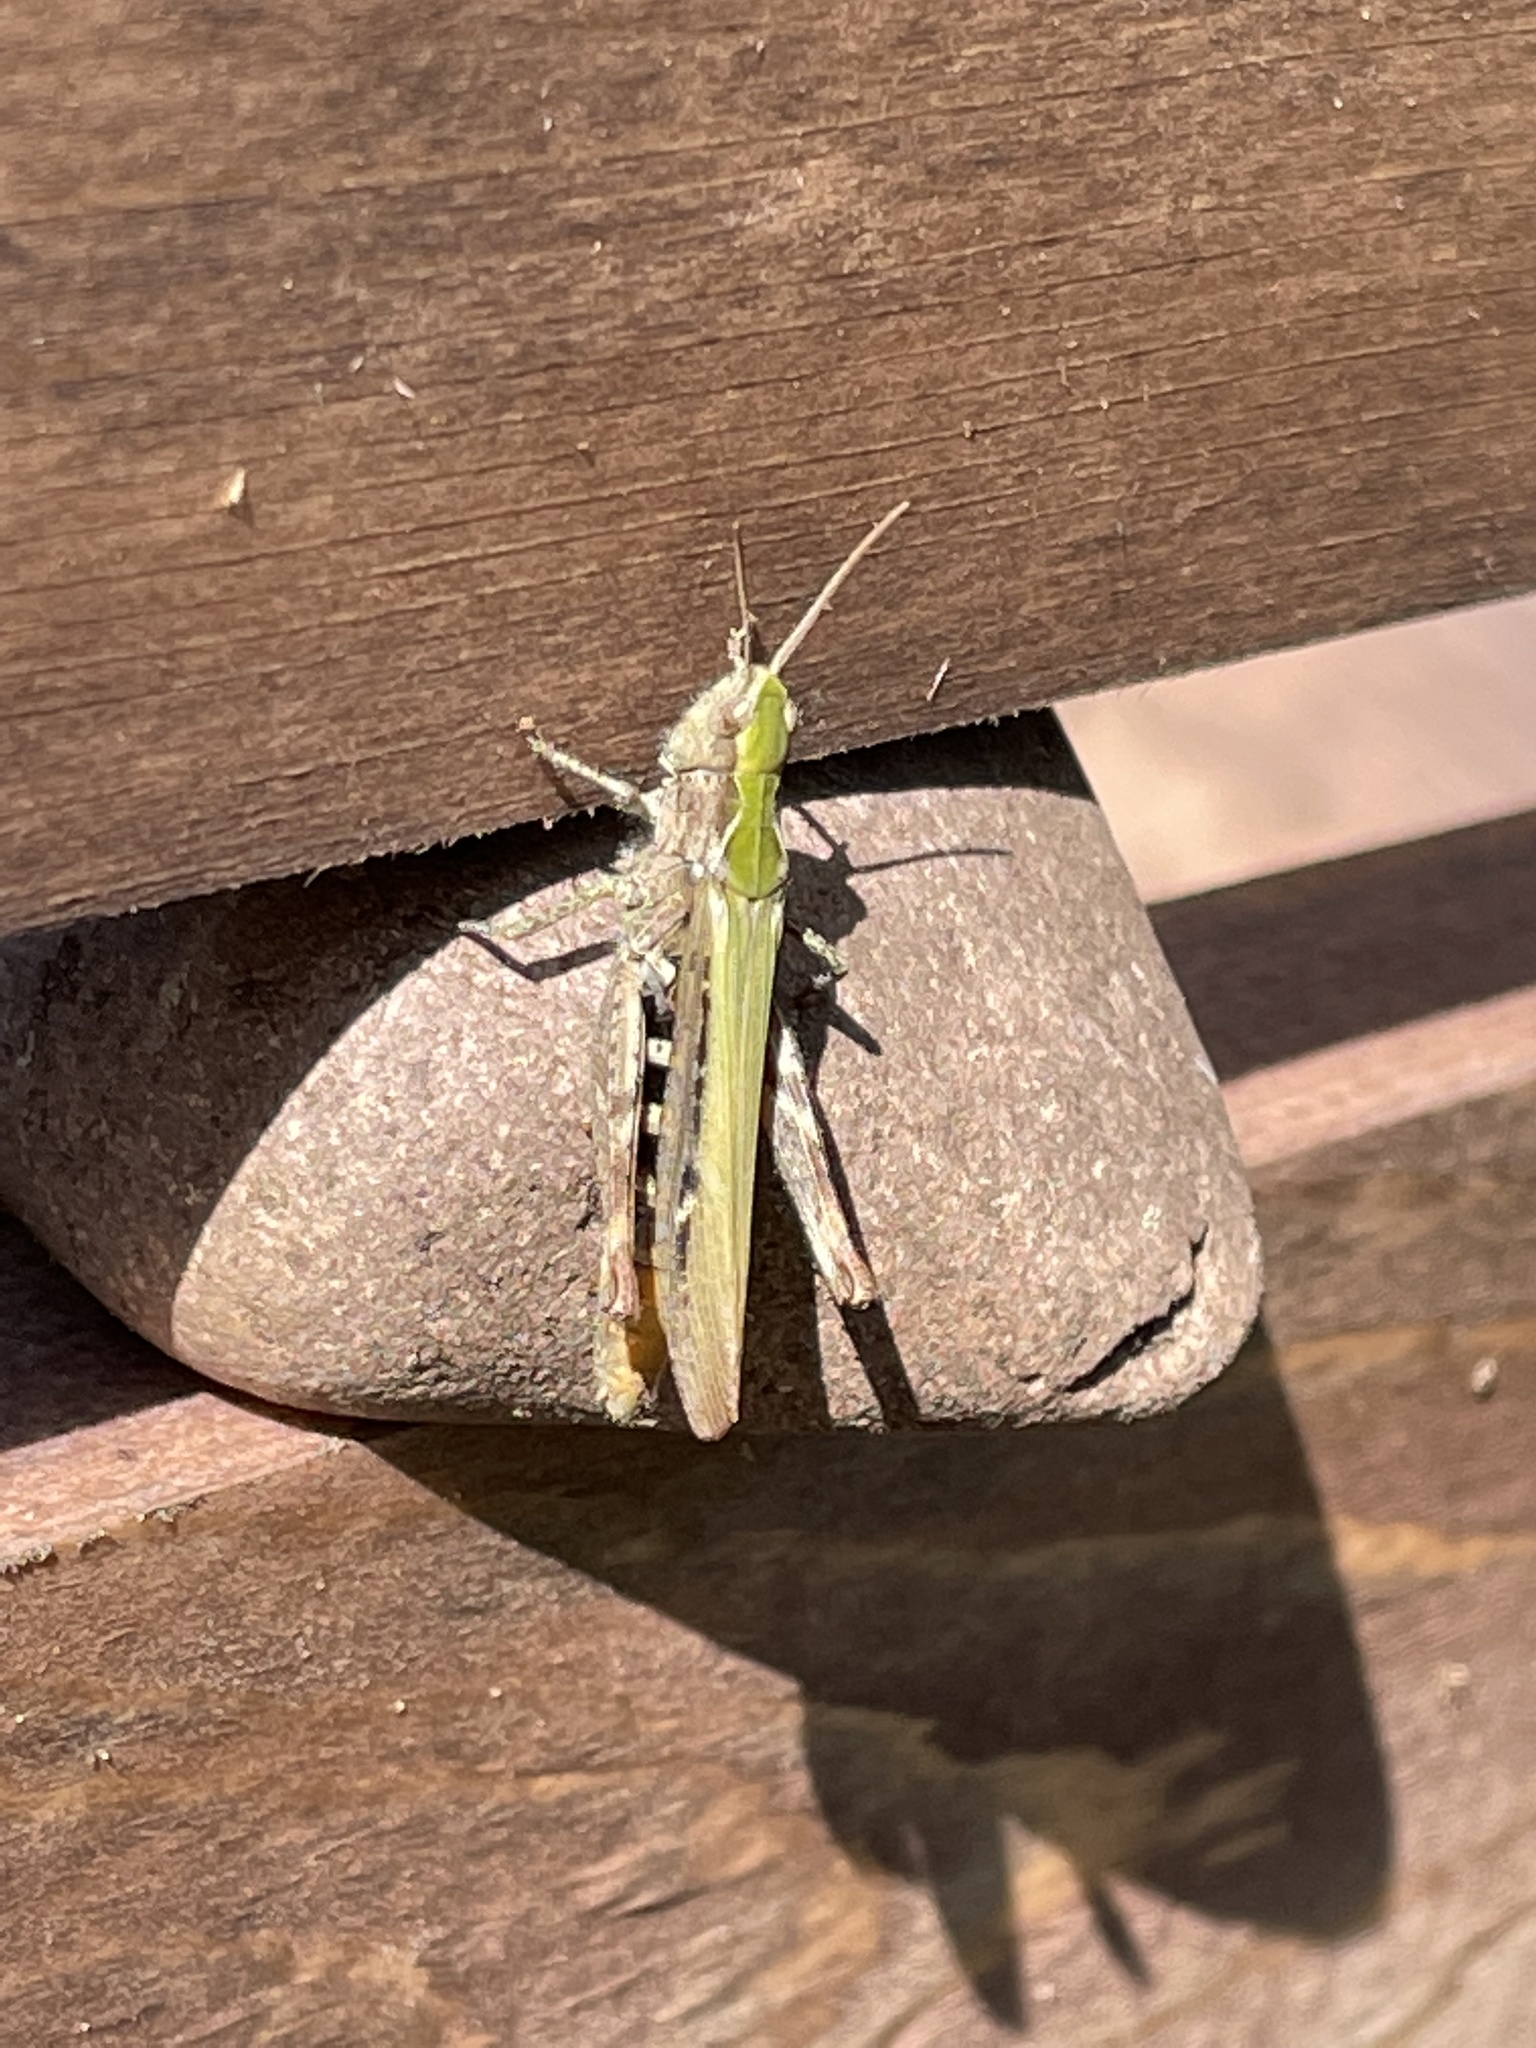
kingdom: Animalia
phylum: Arthropoda
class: Insecta
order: Orthoptera
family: Acrididae
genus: Chorthippus
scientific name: Chorthippus brunneus
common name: Field grasshopper
